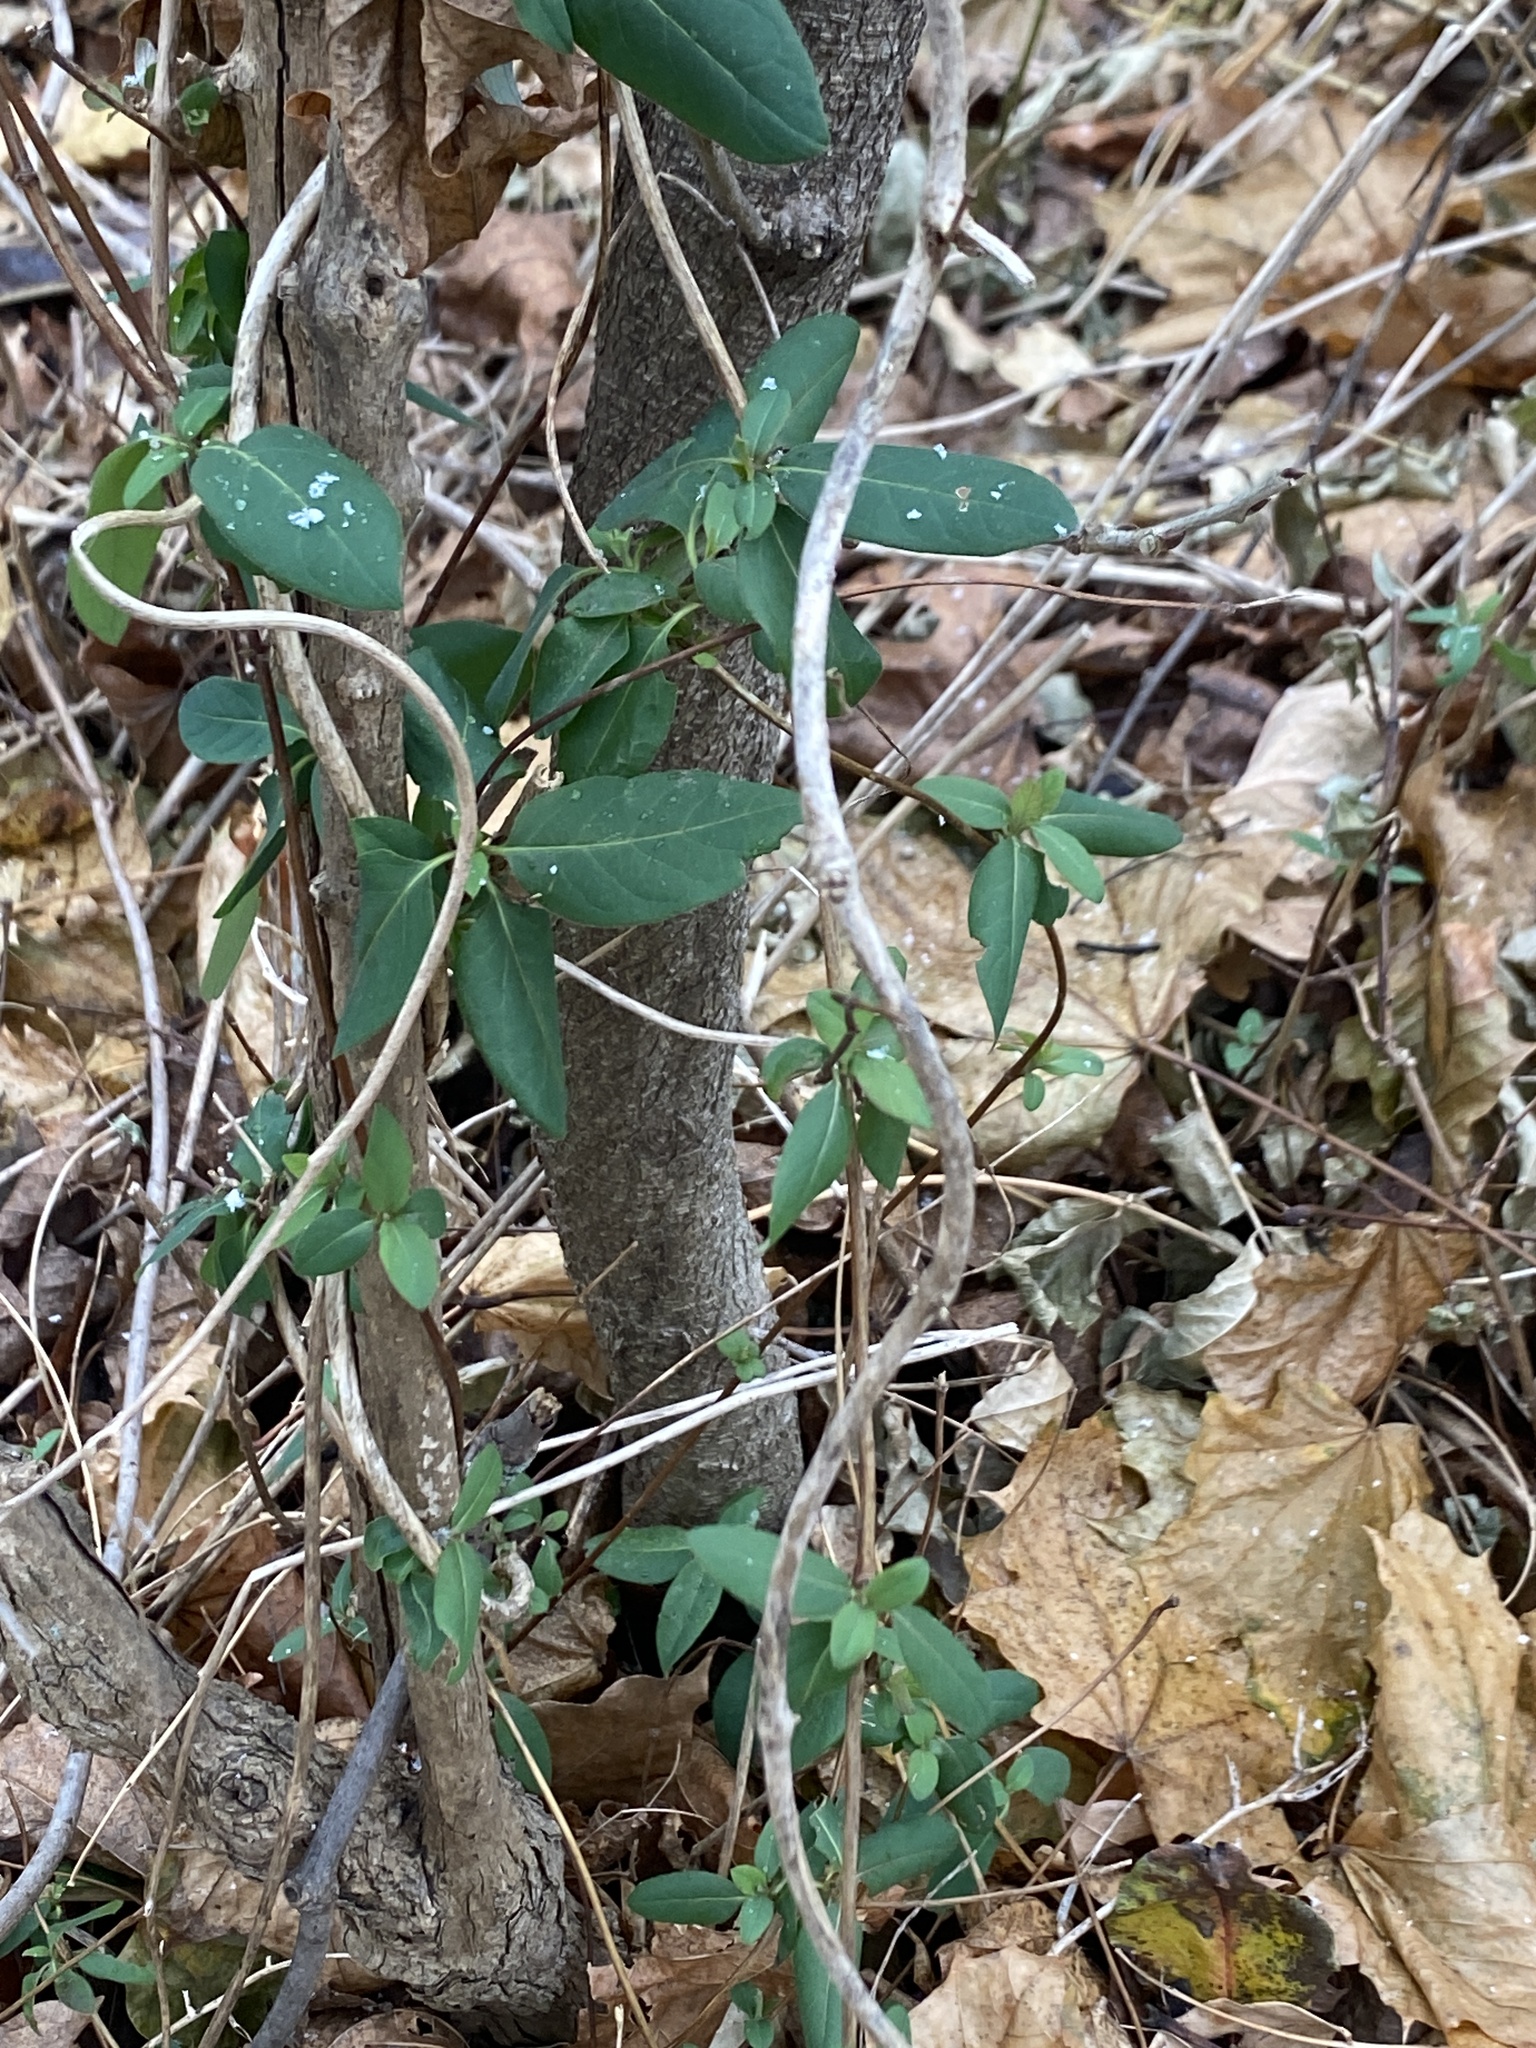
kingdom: Plantae
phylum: Tracheophyta
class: Magnoliopsida
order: Dipsacales
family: Caprifoliaceae
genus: Lonicera
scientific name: Lonicera japonica
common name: Japanese honeysuckle
